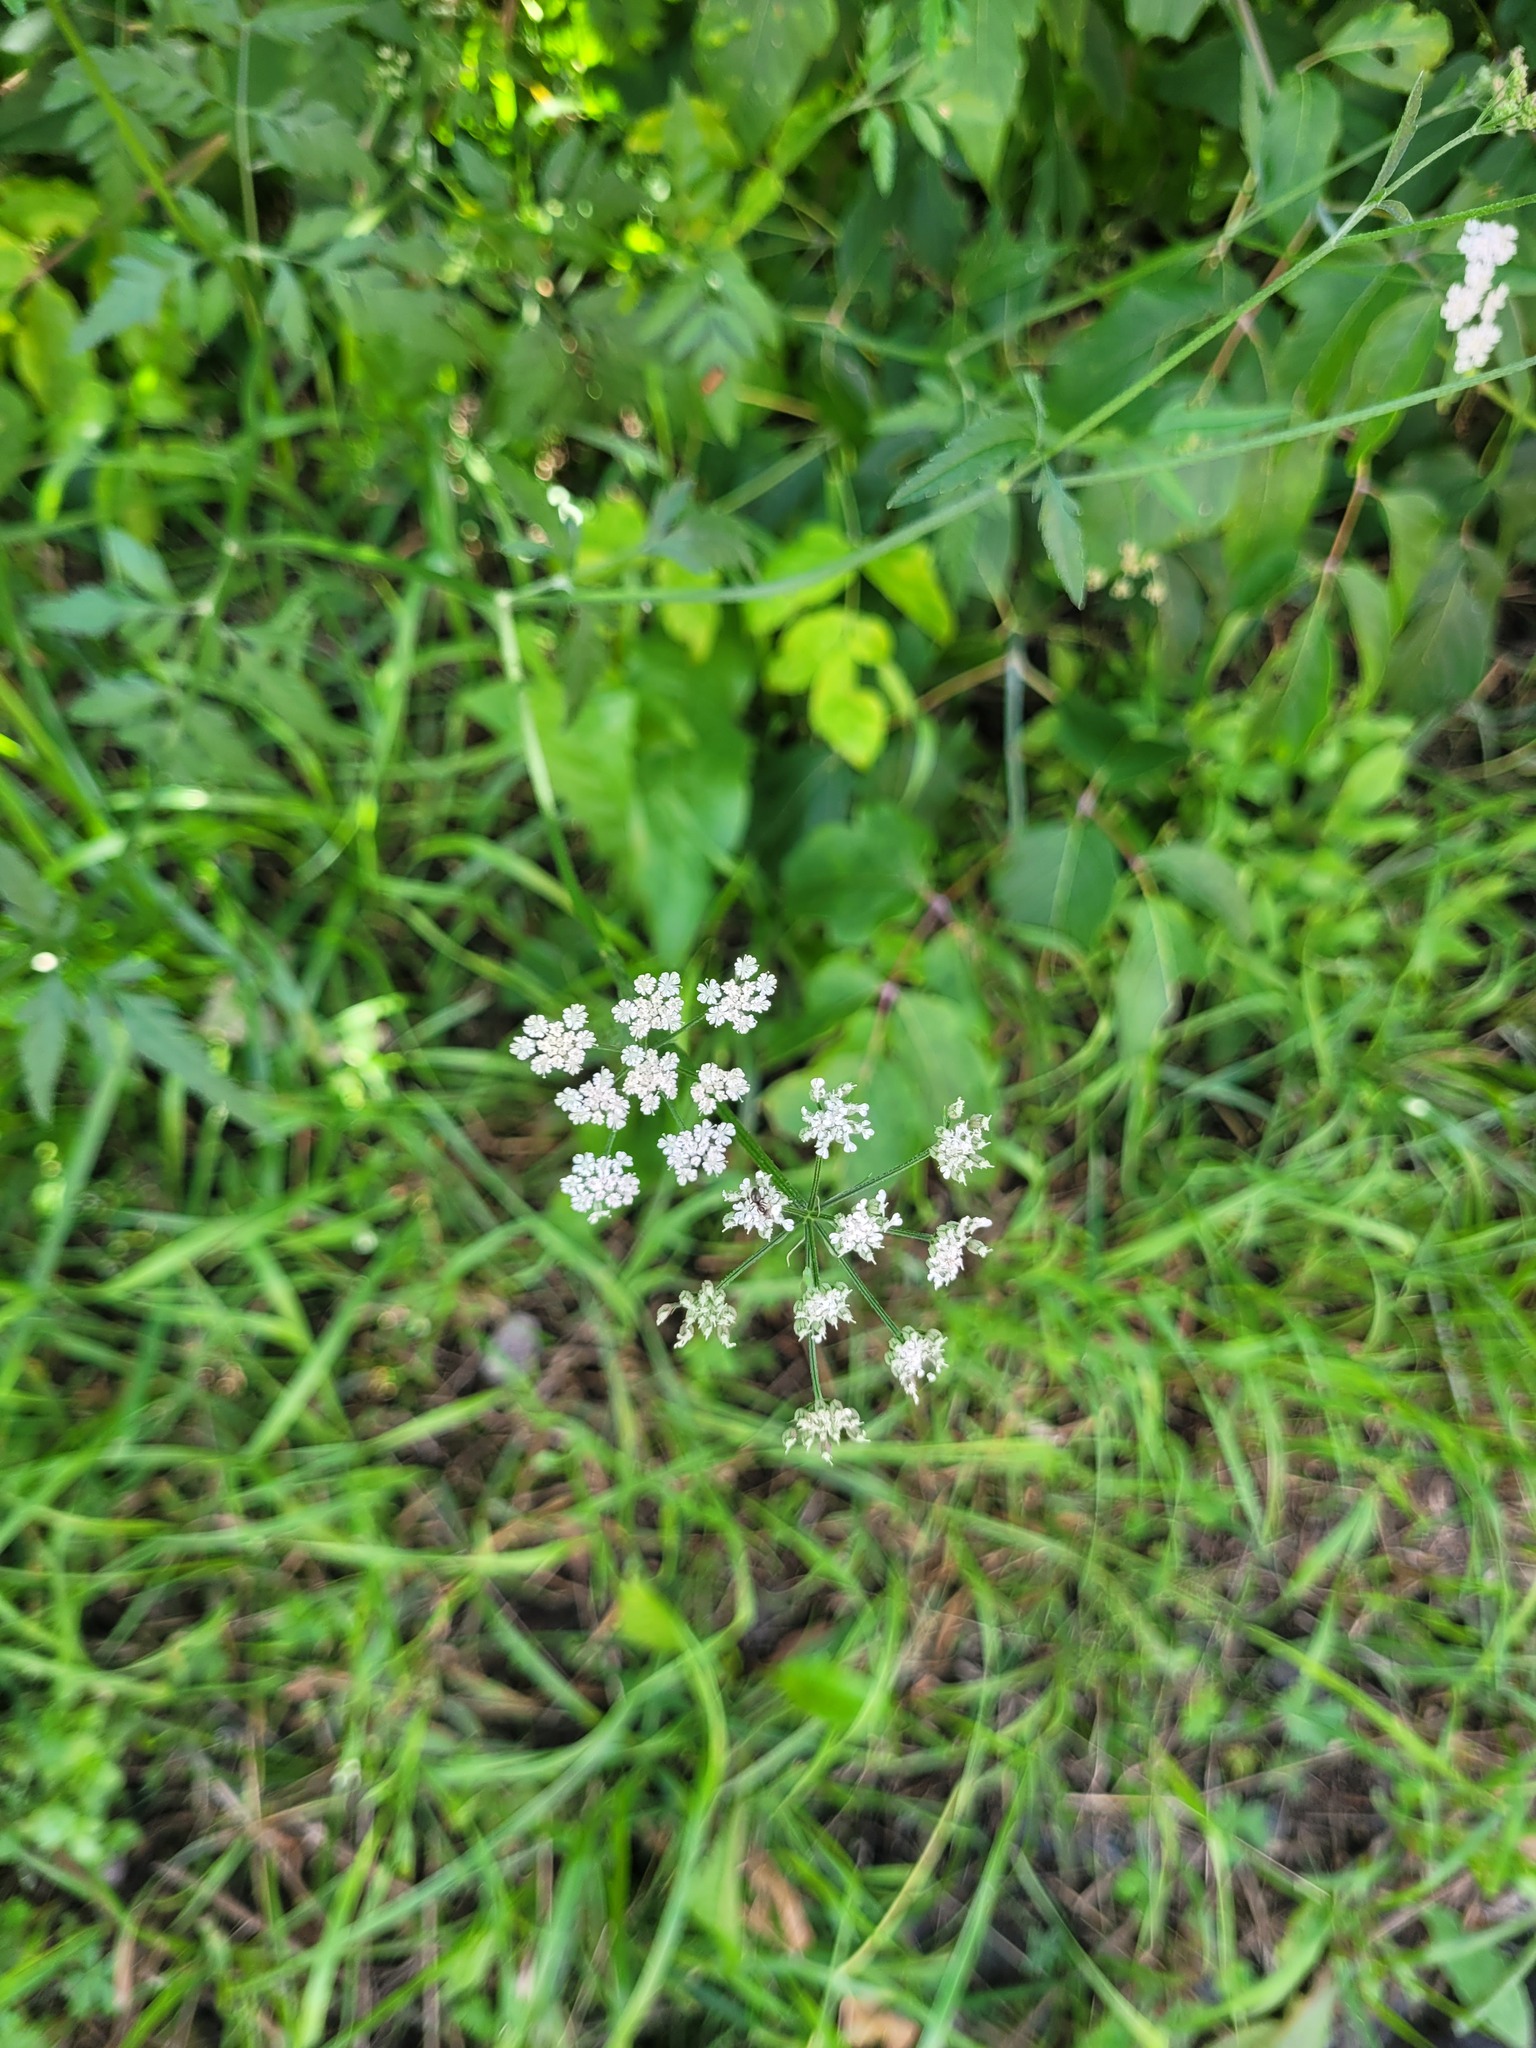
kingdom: Plantae
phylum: Tracheophyta
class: Magnoliopsida
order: Apiales
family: Apiaceae
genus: Torilis
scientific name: Torilis japonica
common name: Upright hedge-parsley
